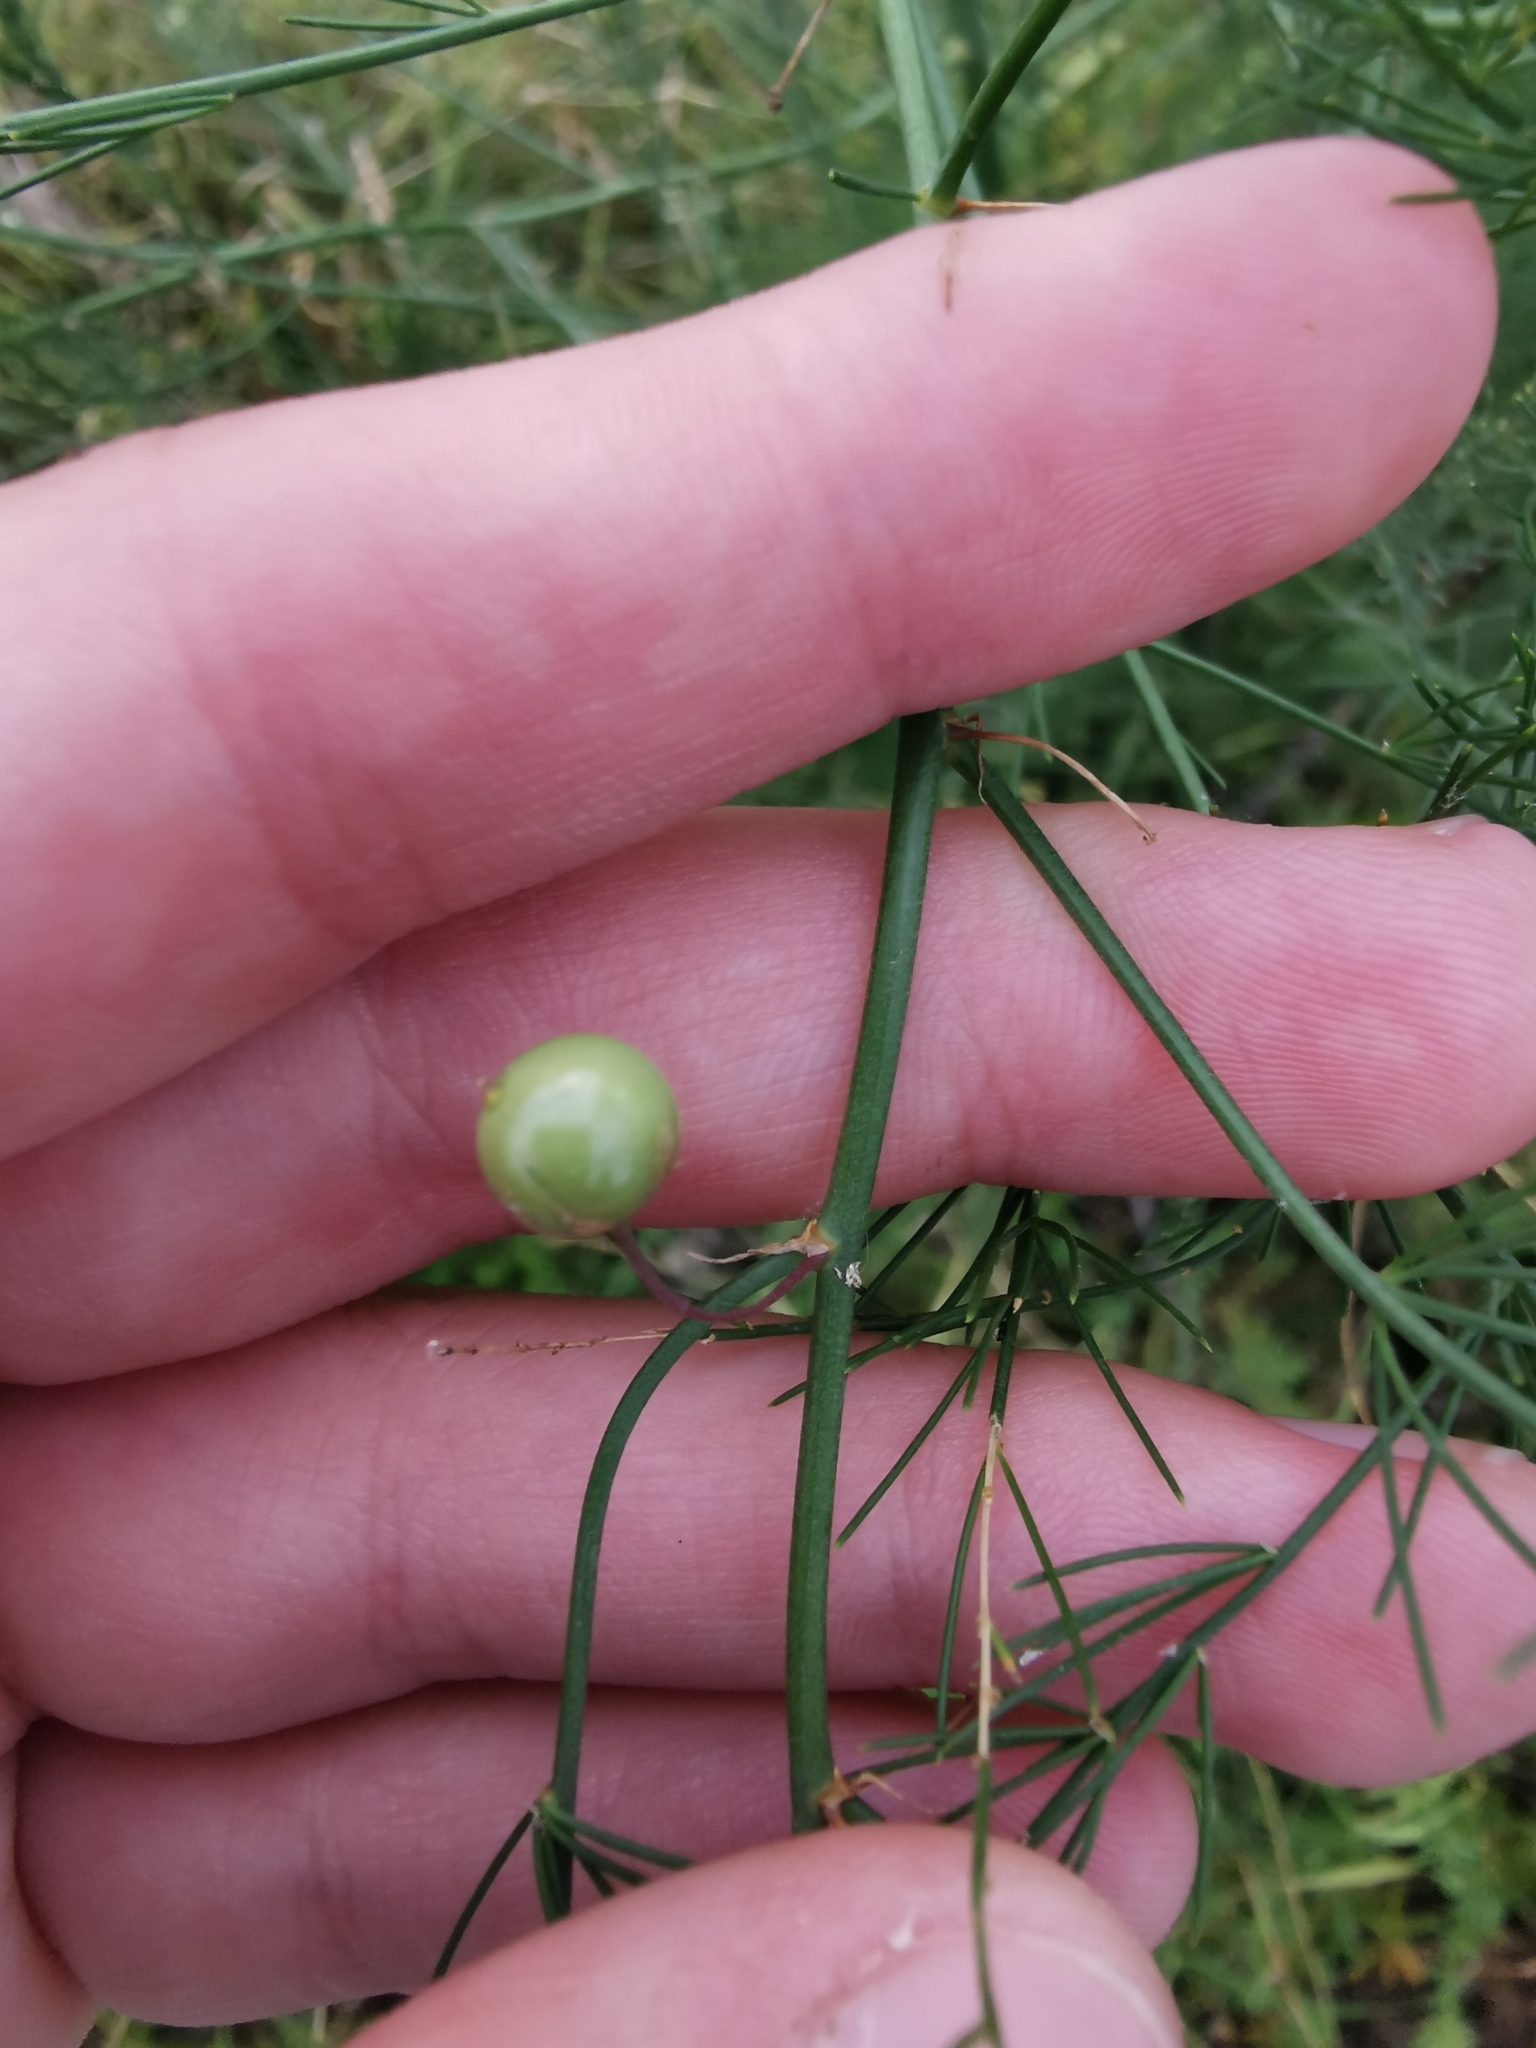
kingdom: Plantae
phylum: Tracheophyta
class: Liliopsida
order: Asparagales
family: Asparagaceae
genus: Asparagus
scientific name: Asparagus officinalis
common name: Garden asparagus
